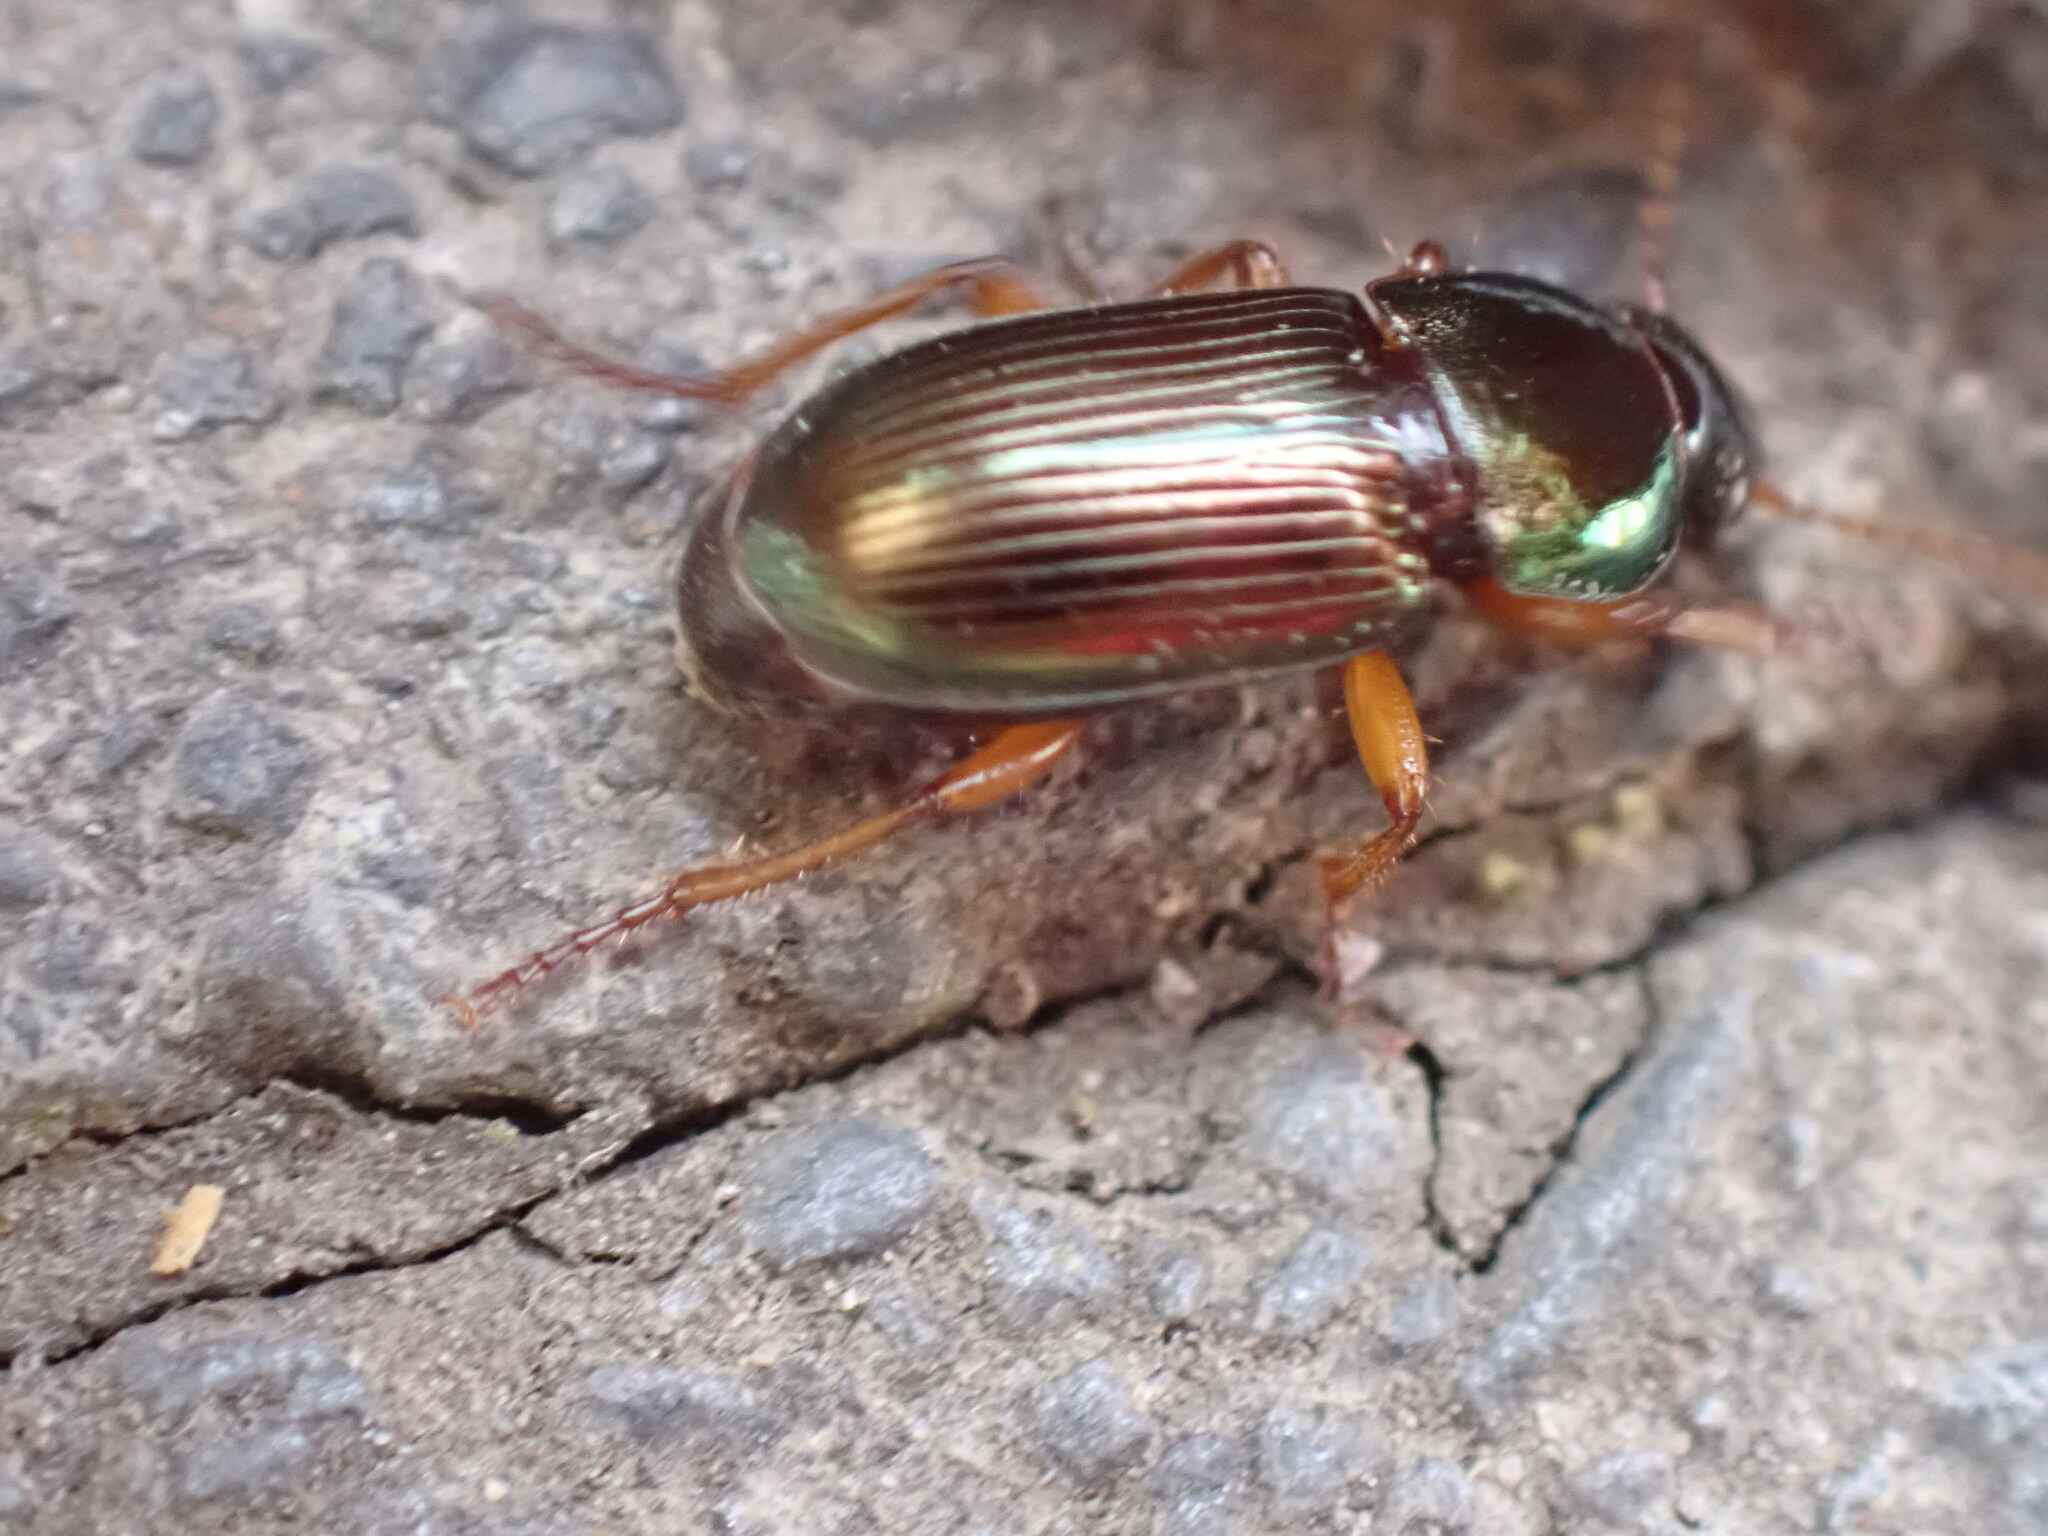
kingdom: Animalia
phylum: Arthropoda
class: Insecta
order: Coleoptera
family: Carabidae
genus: Harpalus
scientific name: Harpalus affinis
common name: Polychrome harp ground beetle
